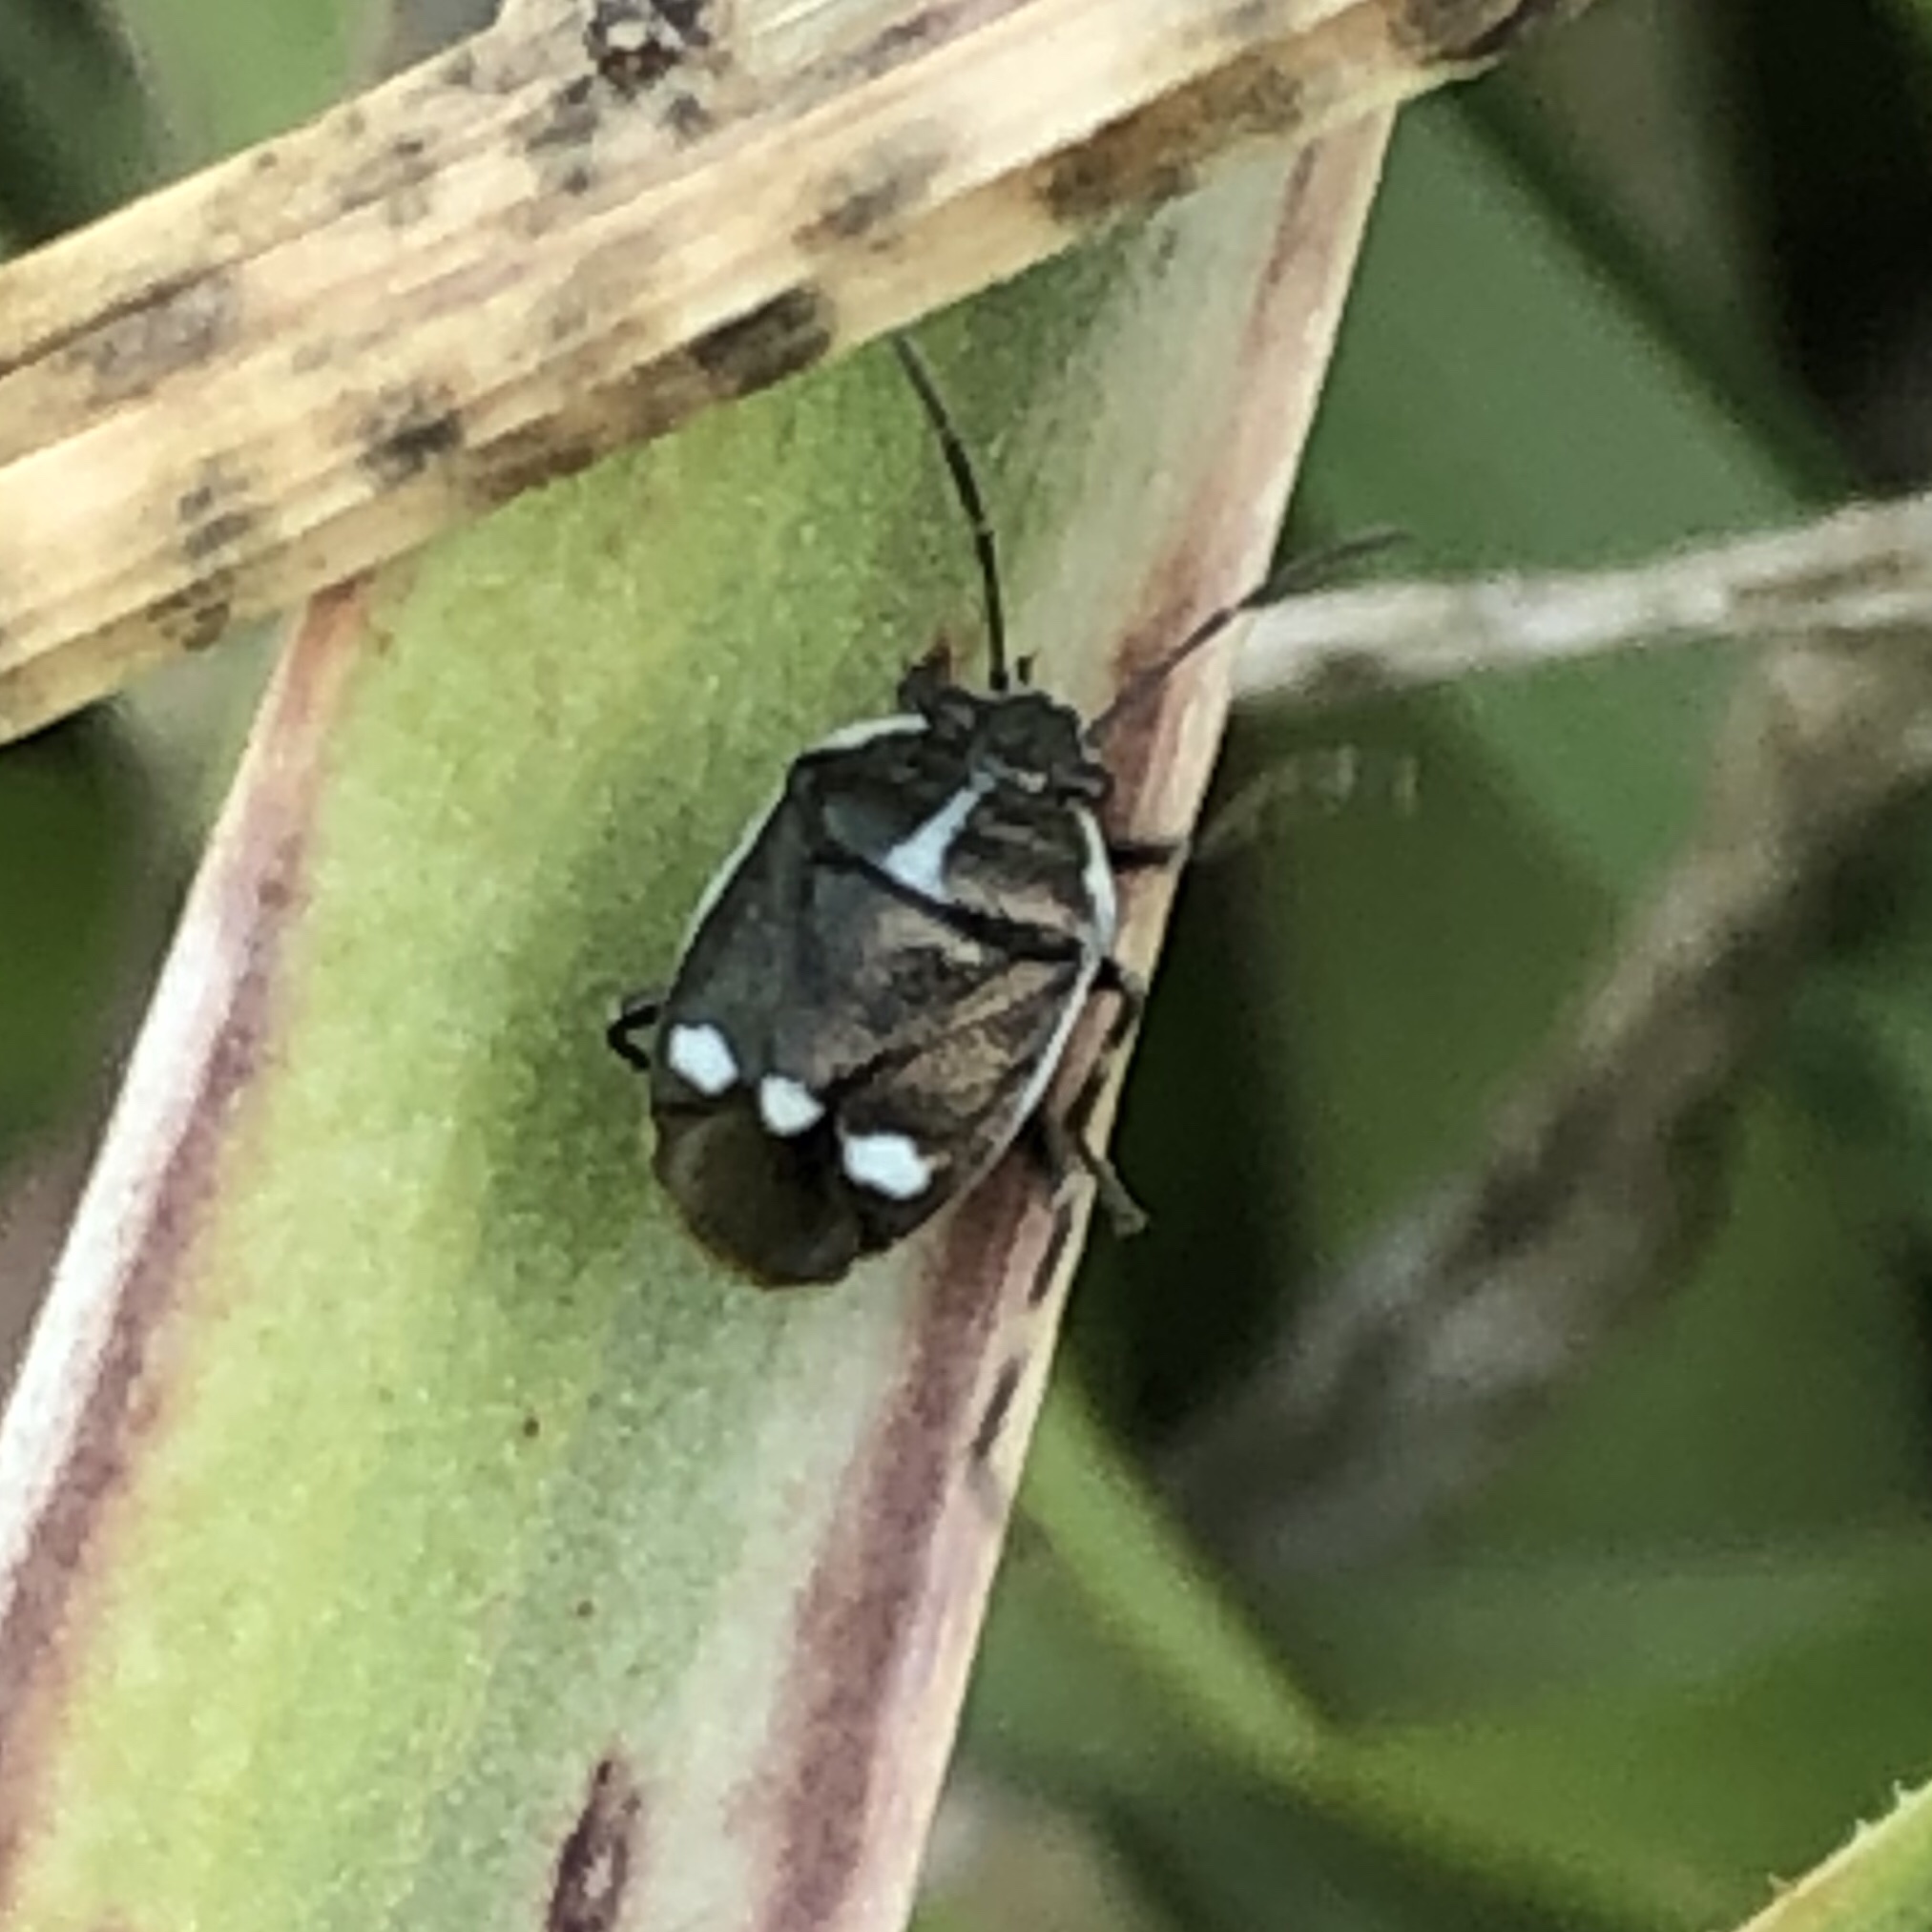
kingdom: Animalia
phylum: Arthropoda
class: Insecta
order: Hemiptera
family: Pentatomidae
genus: Eurydema
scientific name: Eurydema oleracea
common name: Cabbage bug
